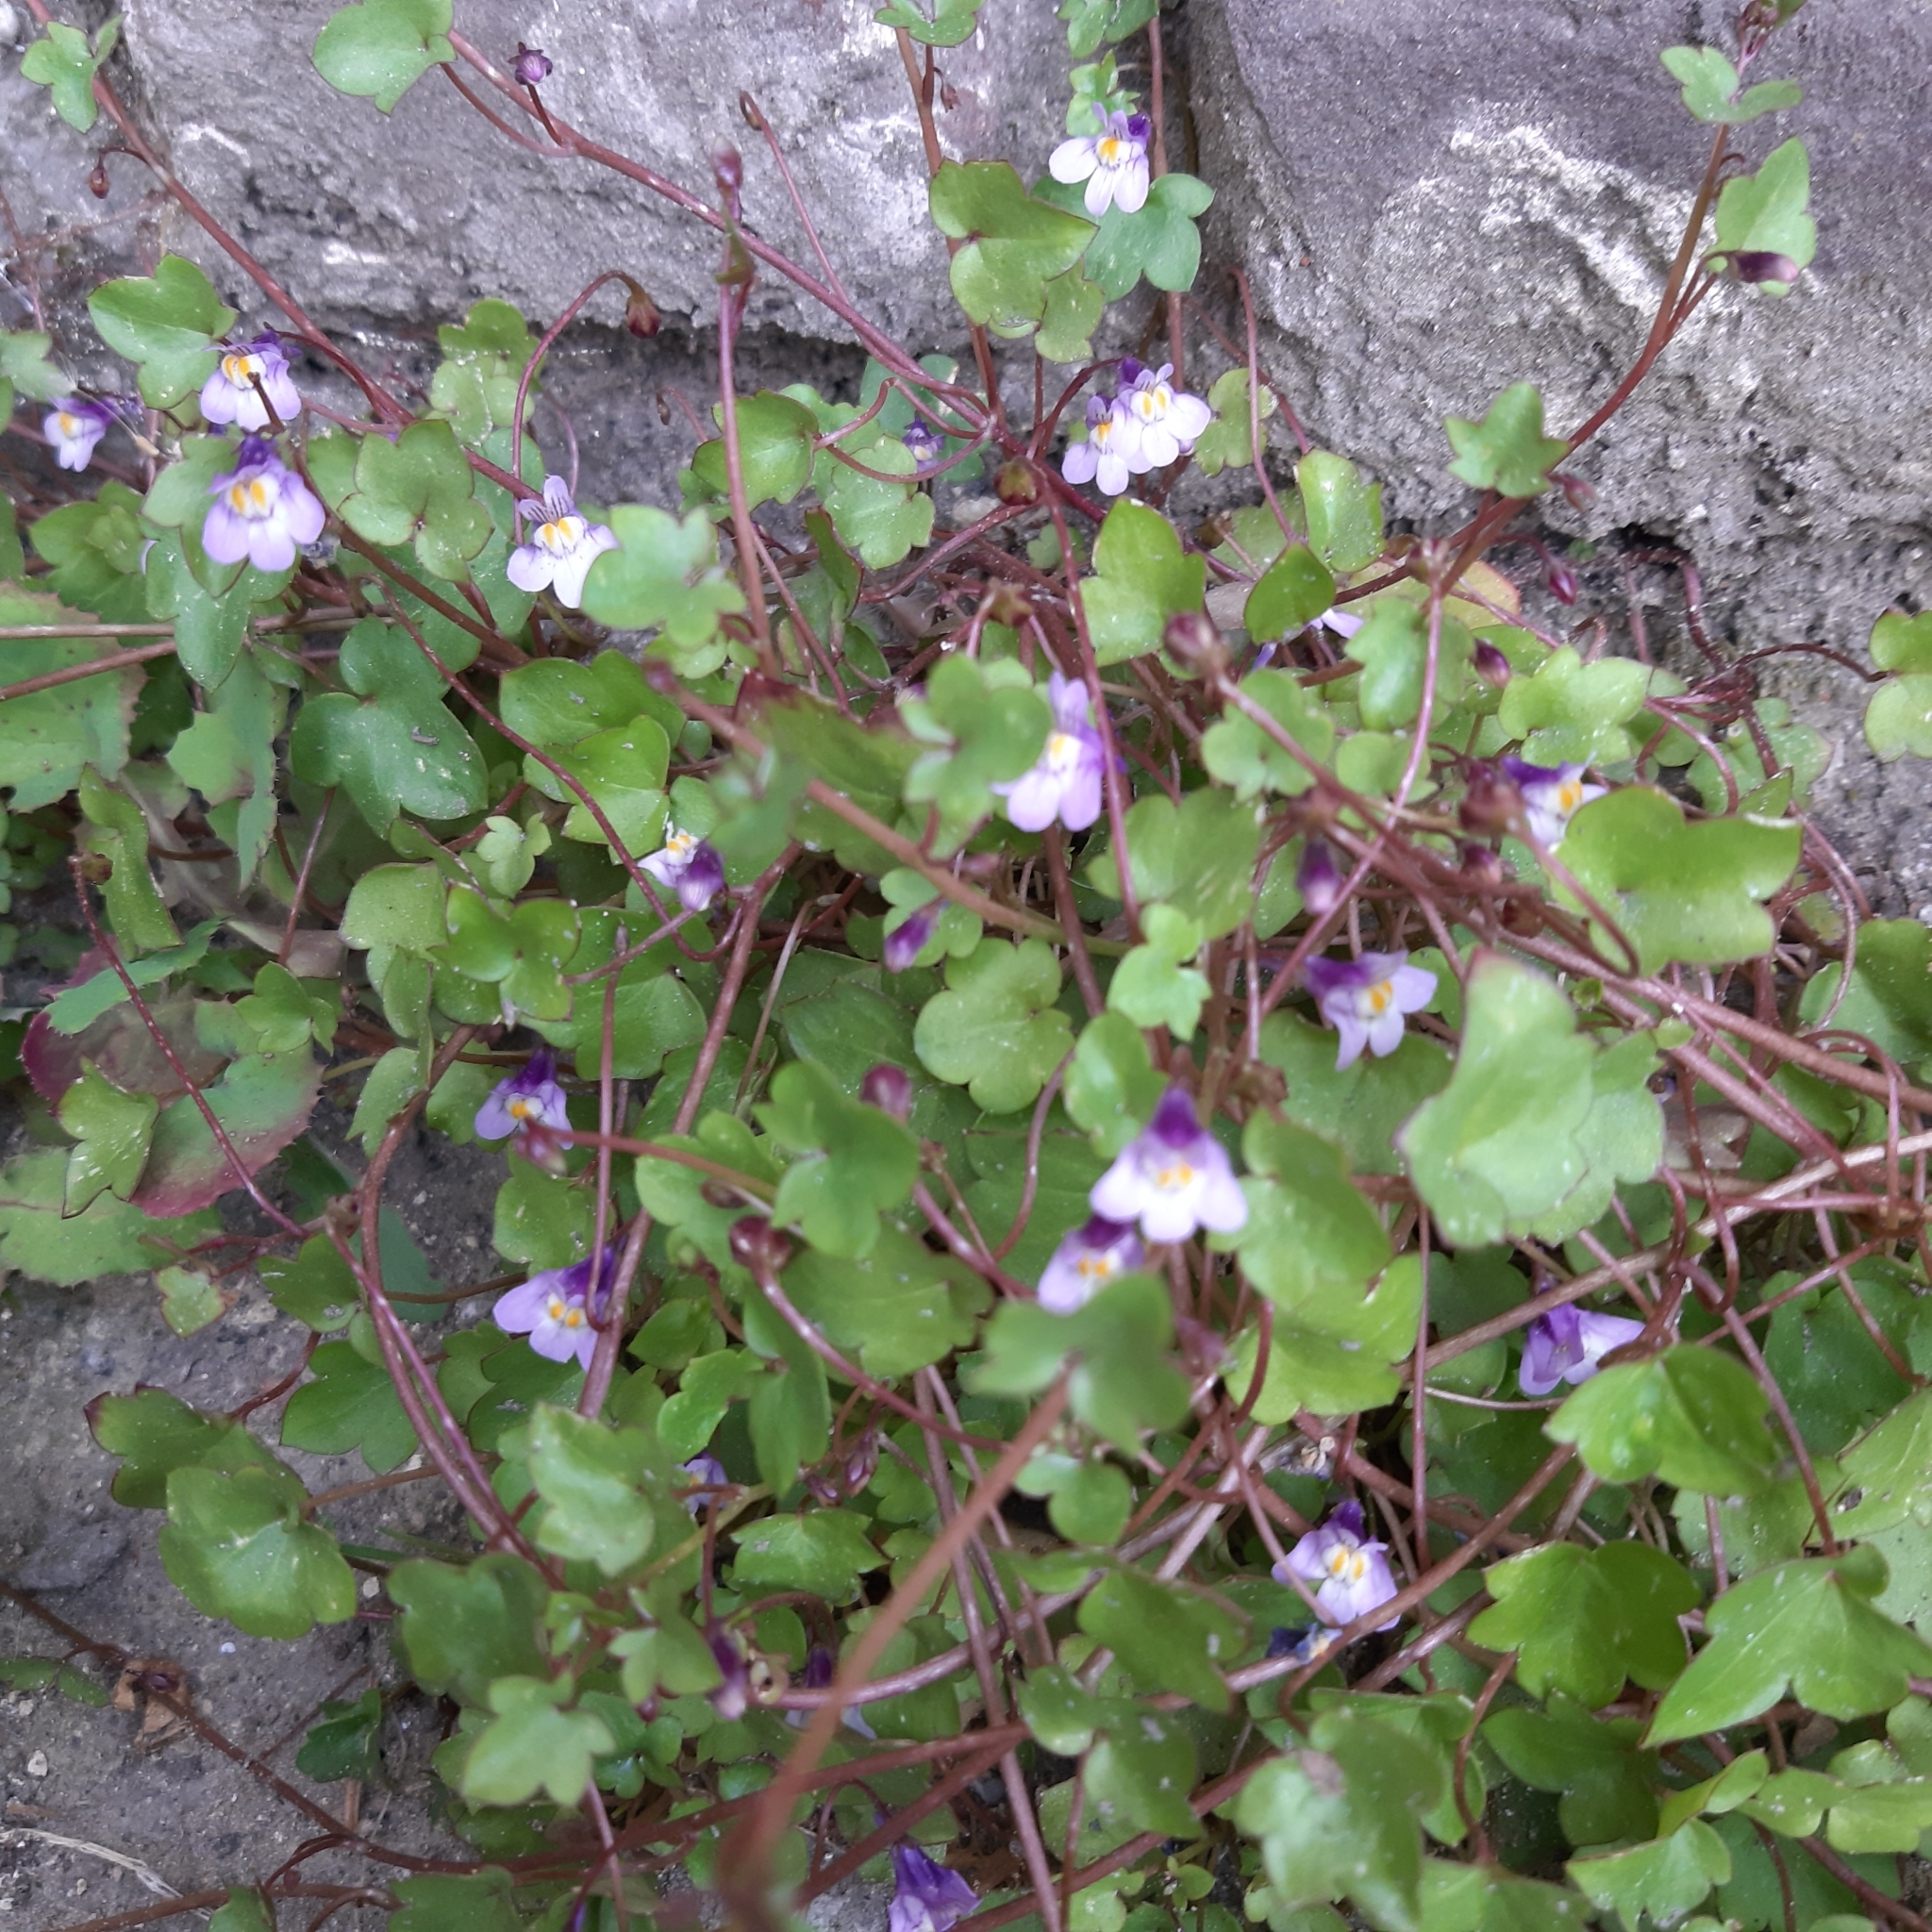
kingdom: Plantae
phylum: Tracheophyta
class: Magnoliopsida
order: Lamiales
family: Plantaginaceae
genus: Cymbalaria
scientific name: Cymbalaria muralis
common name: Ivy-leaved toadflax
